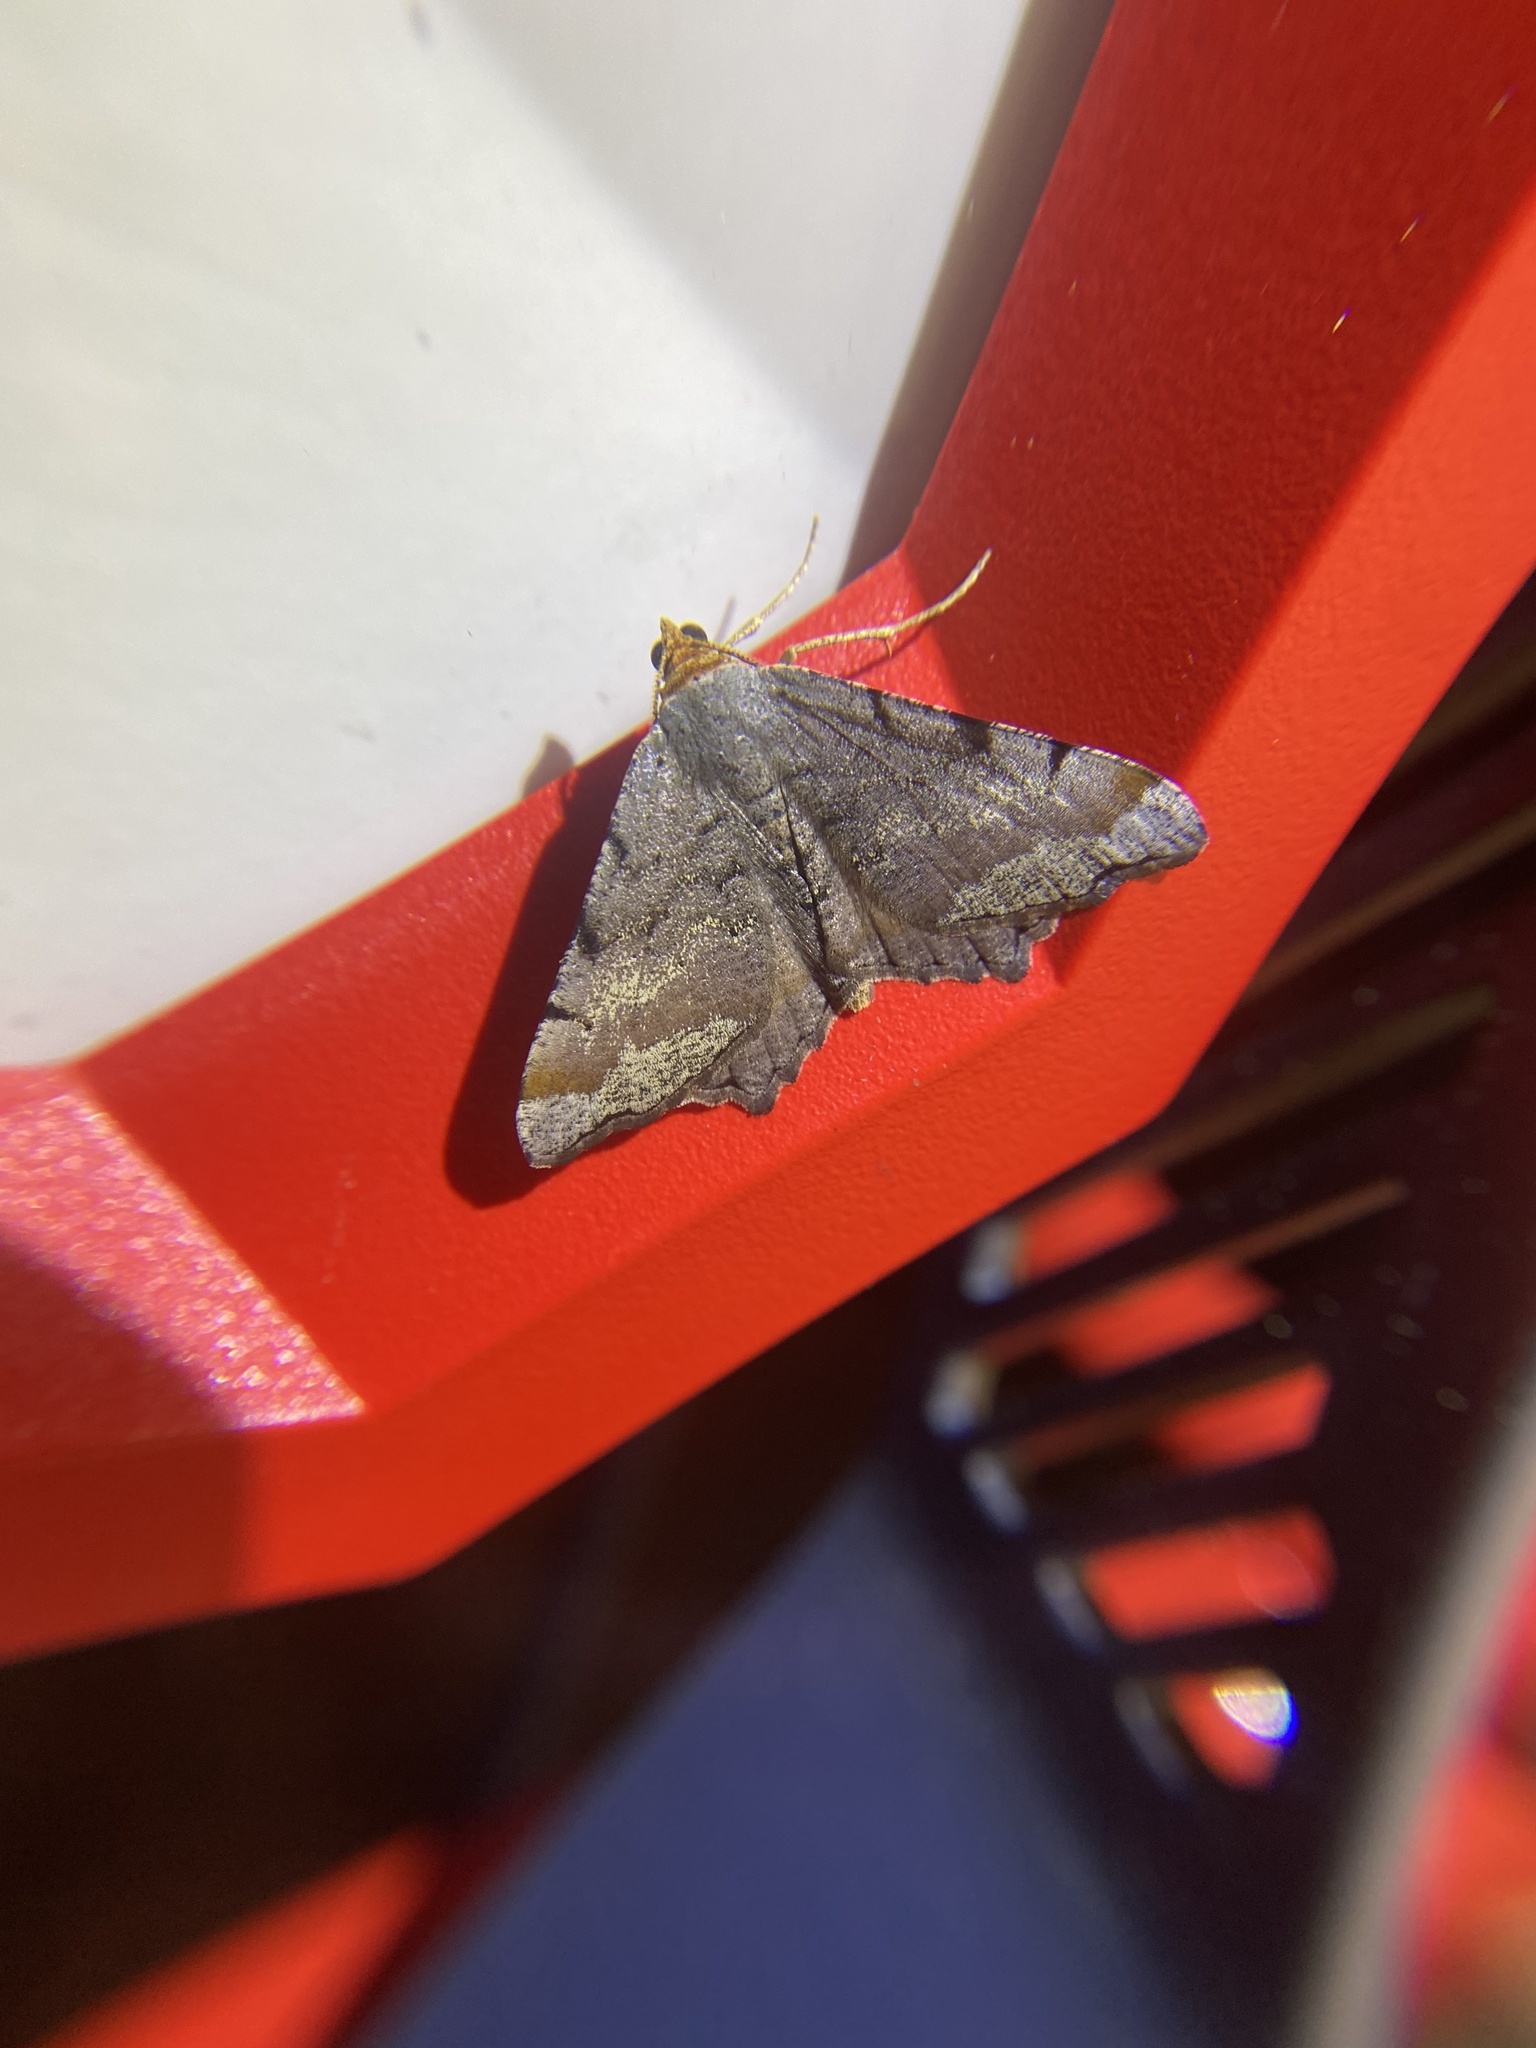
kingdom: Animalia
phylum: Arthropoda
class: Insecta
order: Lepidoptera
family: Geometridae
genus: Macaria
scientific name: Macaria transitaria
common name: Blurry chocolate angle
